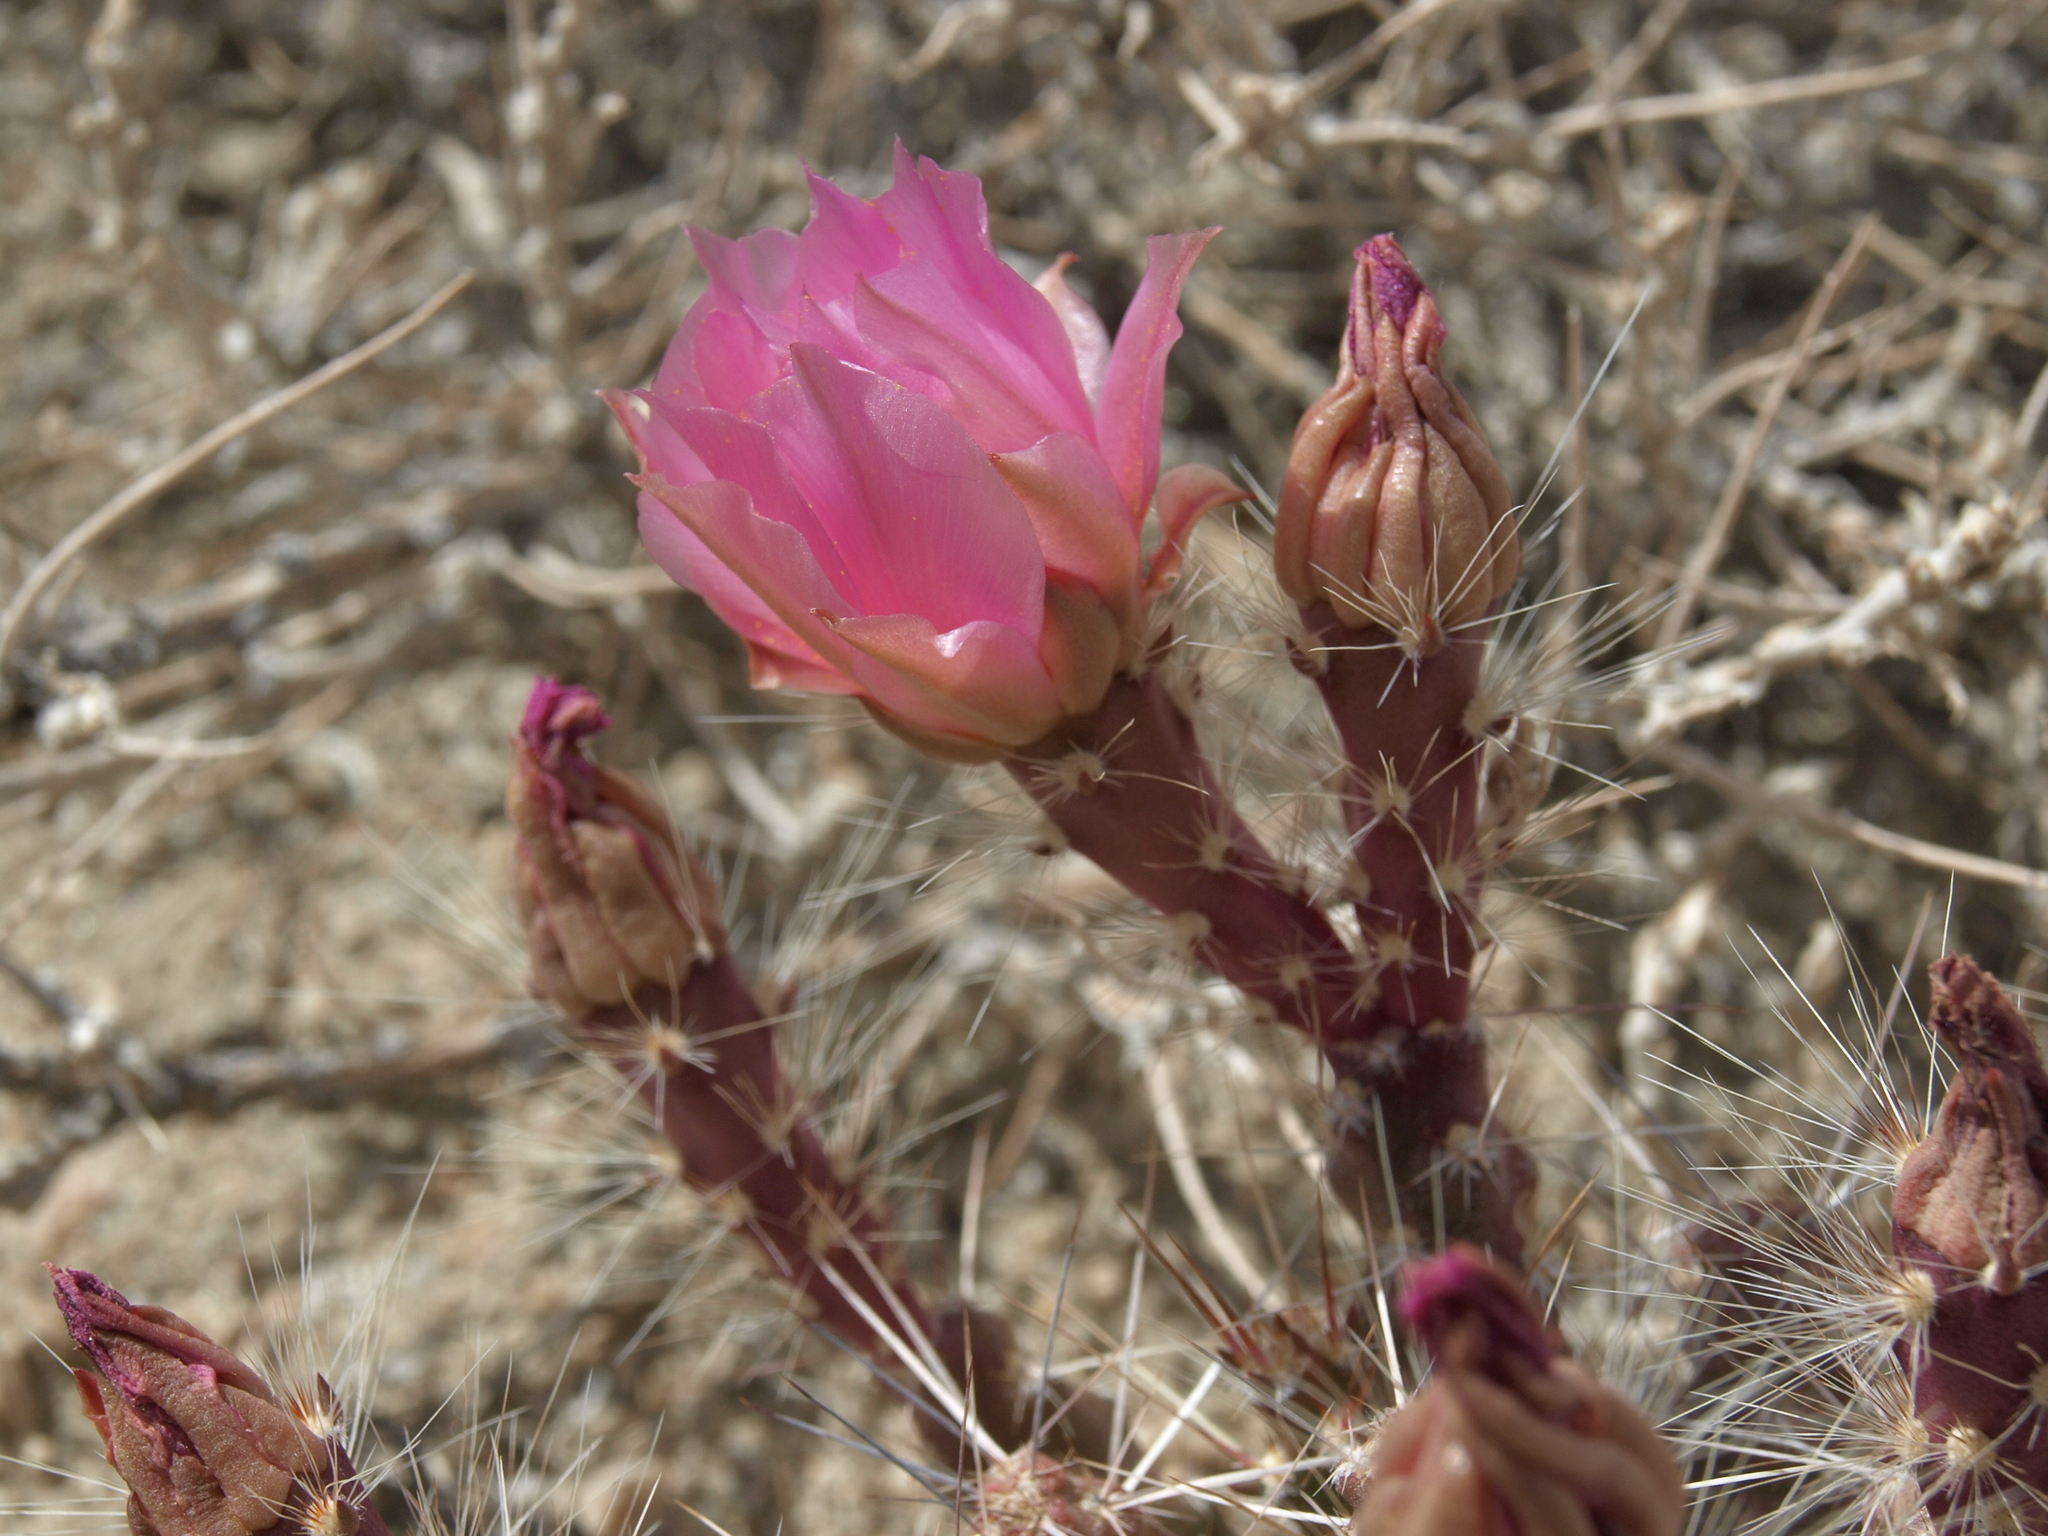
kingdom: Plantae
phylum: Tracheophyta
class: Magnoliopsida
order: Caryophyllales
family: Cactaceae
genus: Micropuntia
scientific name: Micropuntia pulchella
